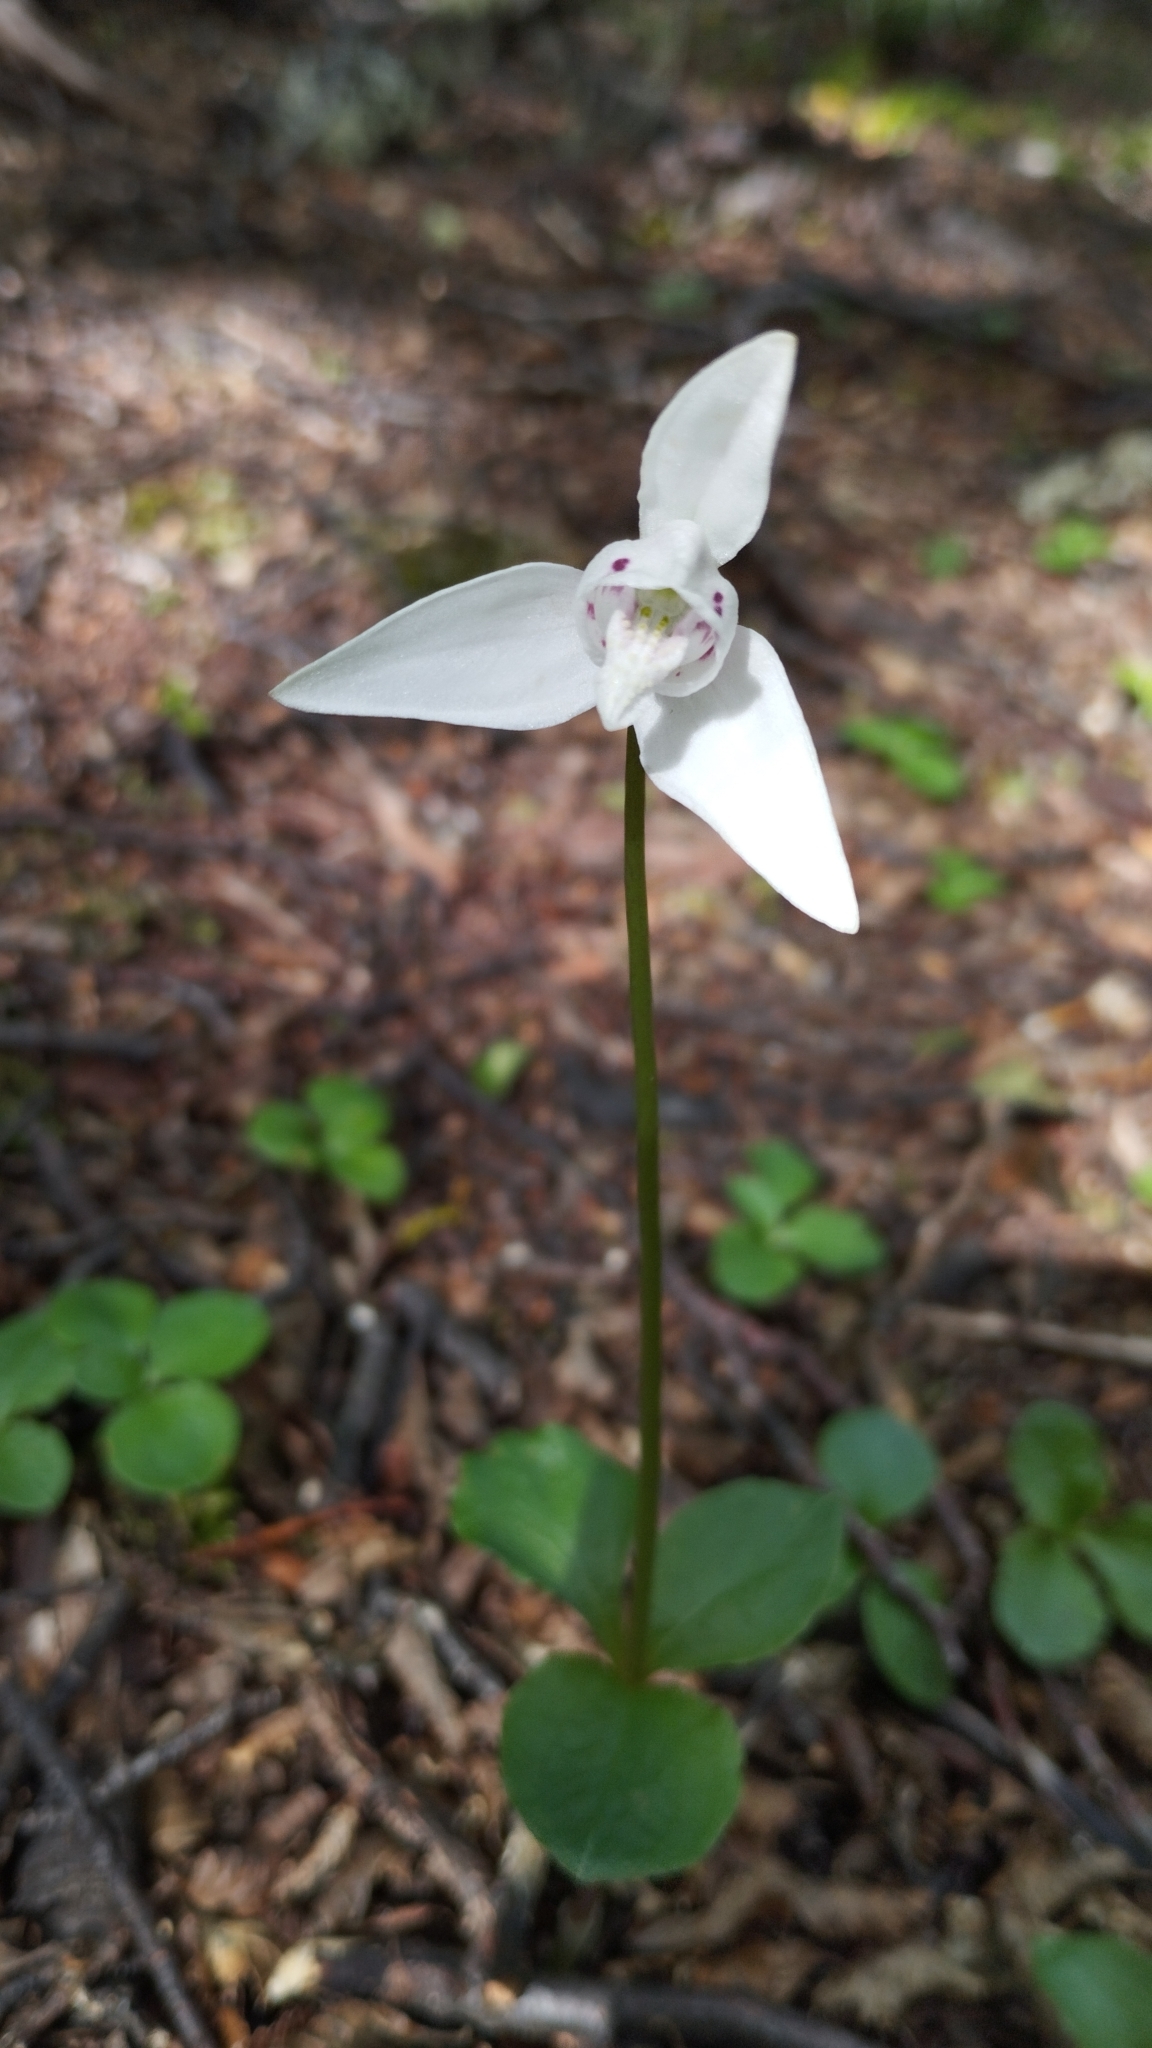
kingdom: Plantae
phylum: Tracheophyta
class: Liliopsida
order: Asparagales
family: Orchidaceae
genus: Codonorchis
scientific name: Codonorchis lessonii
